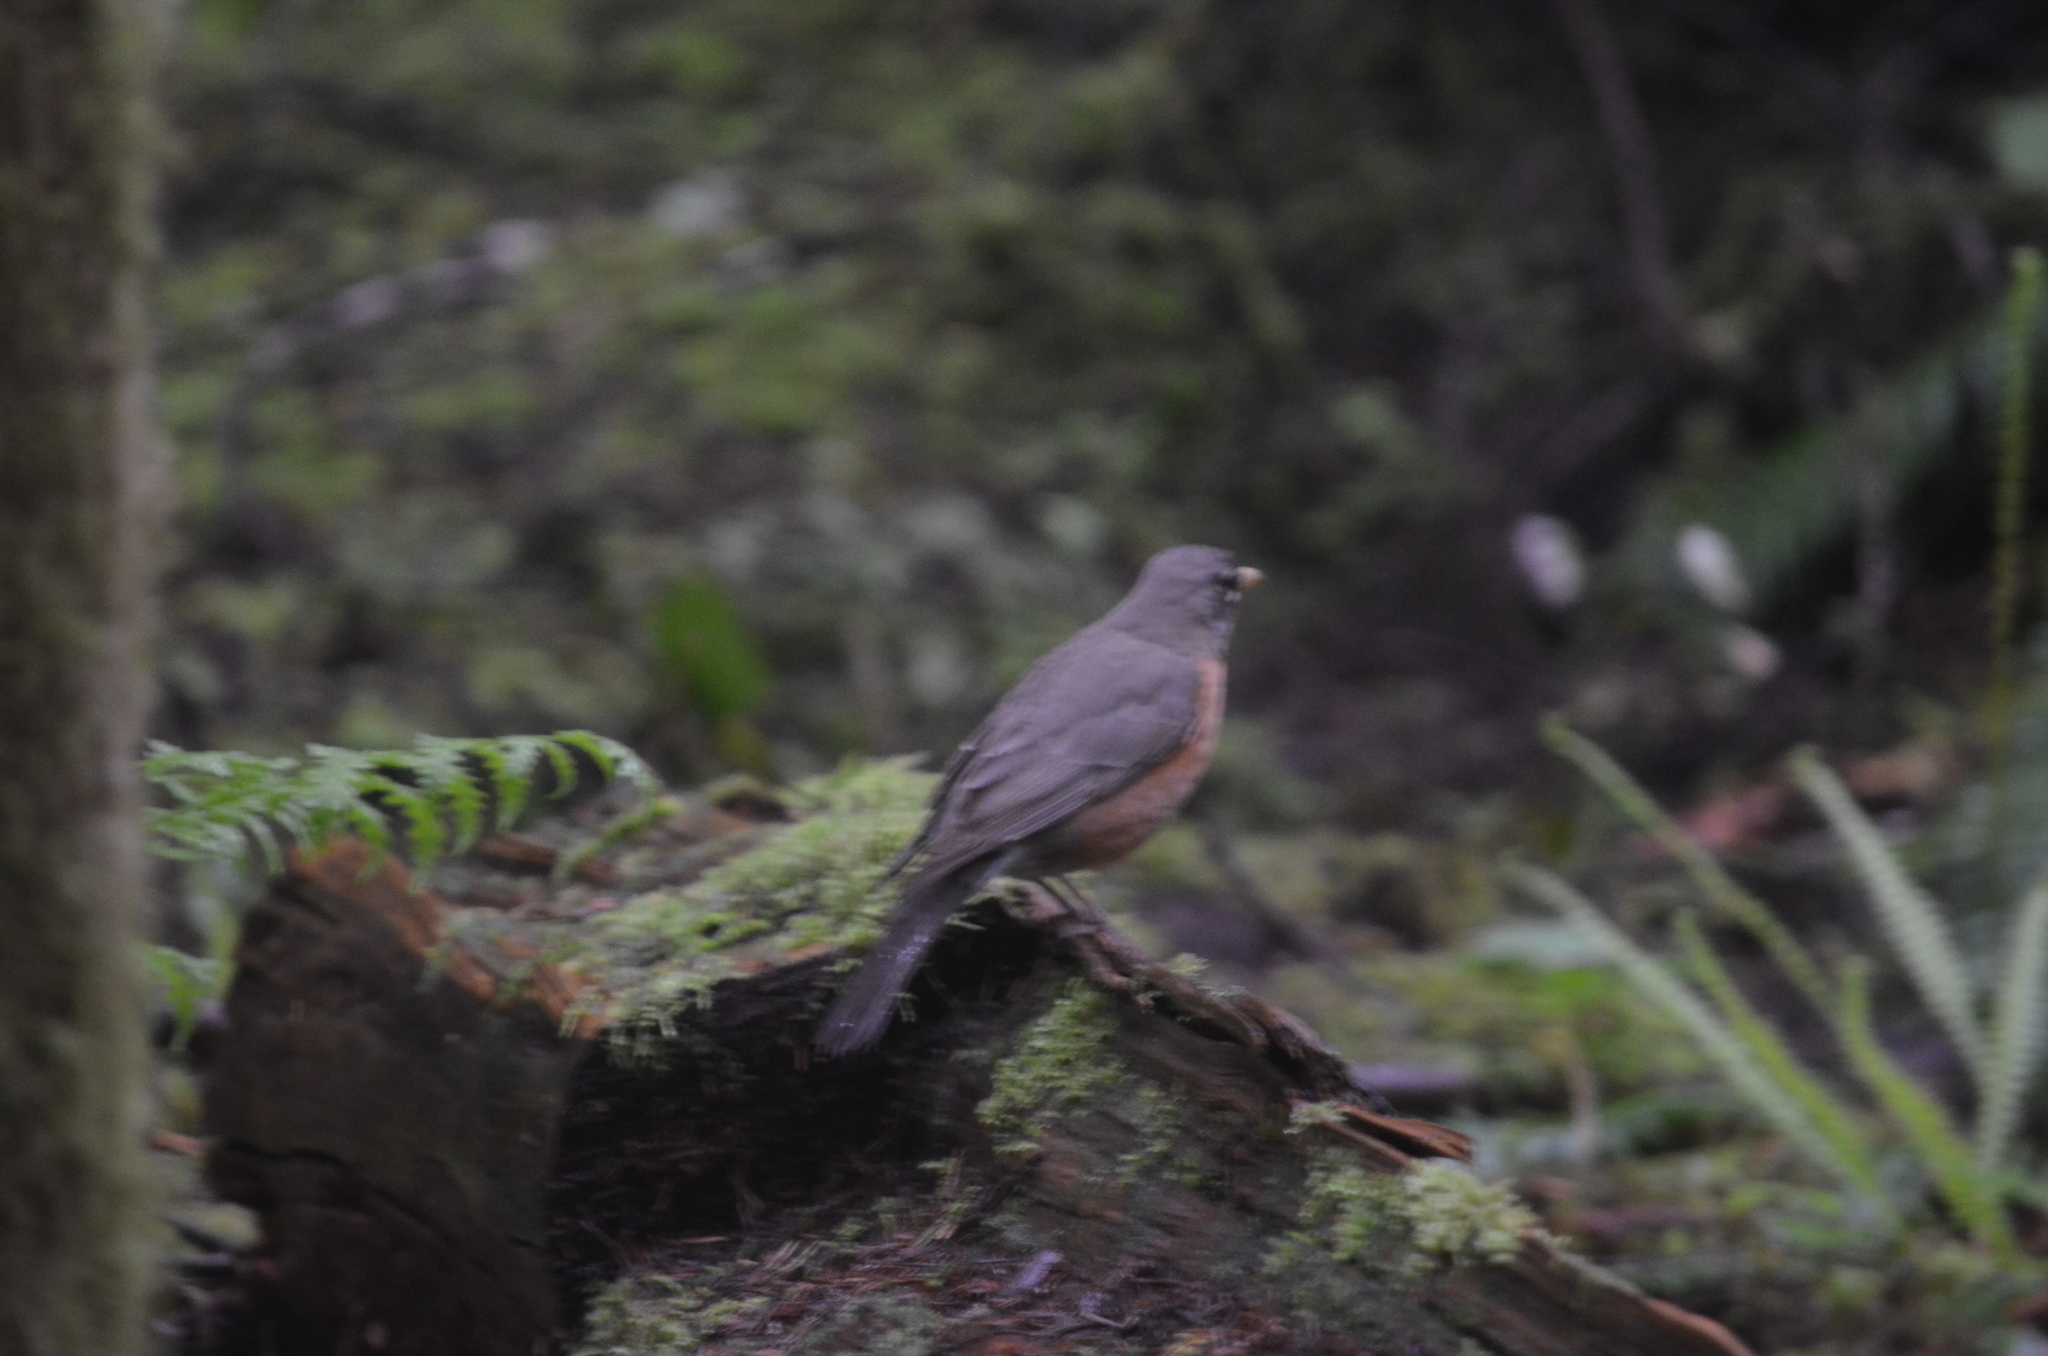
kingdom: Animalia
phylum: Chordata
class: Aves
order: Passeriformes
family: Turdidae
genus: Turdus
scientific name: Turdus migratorius
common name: American robin
